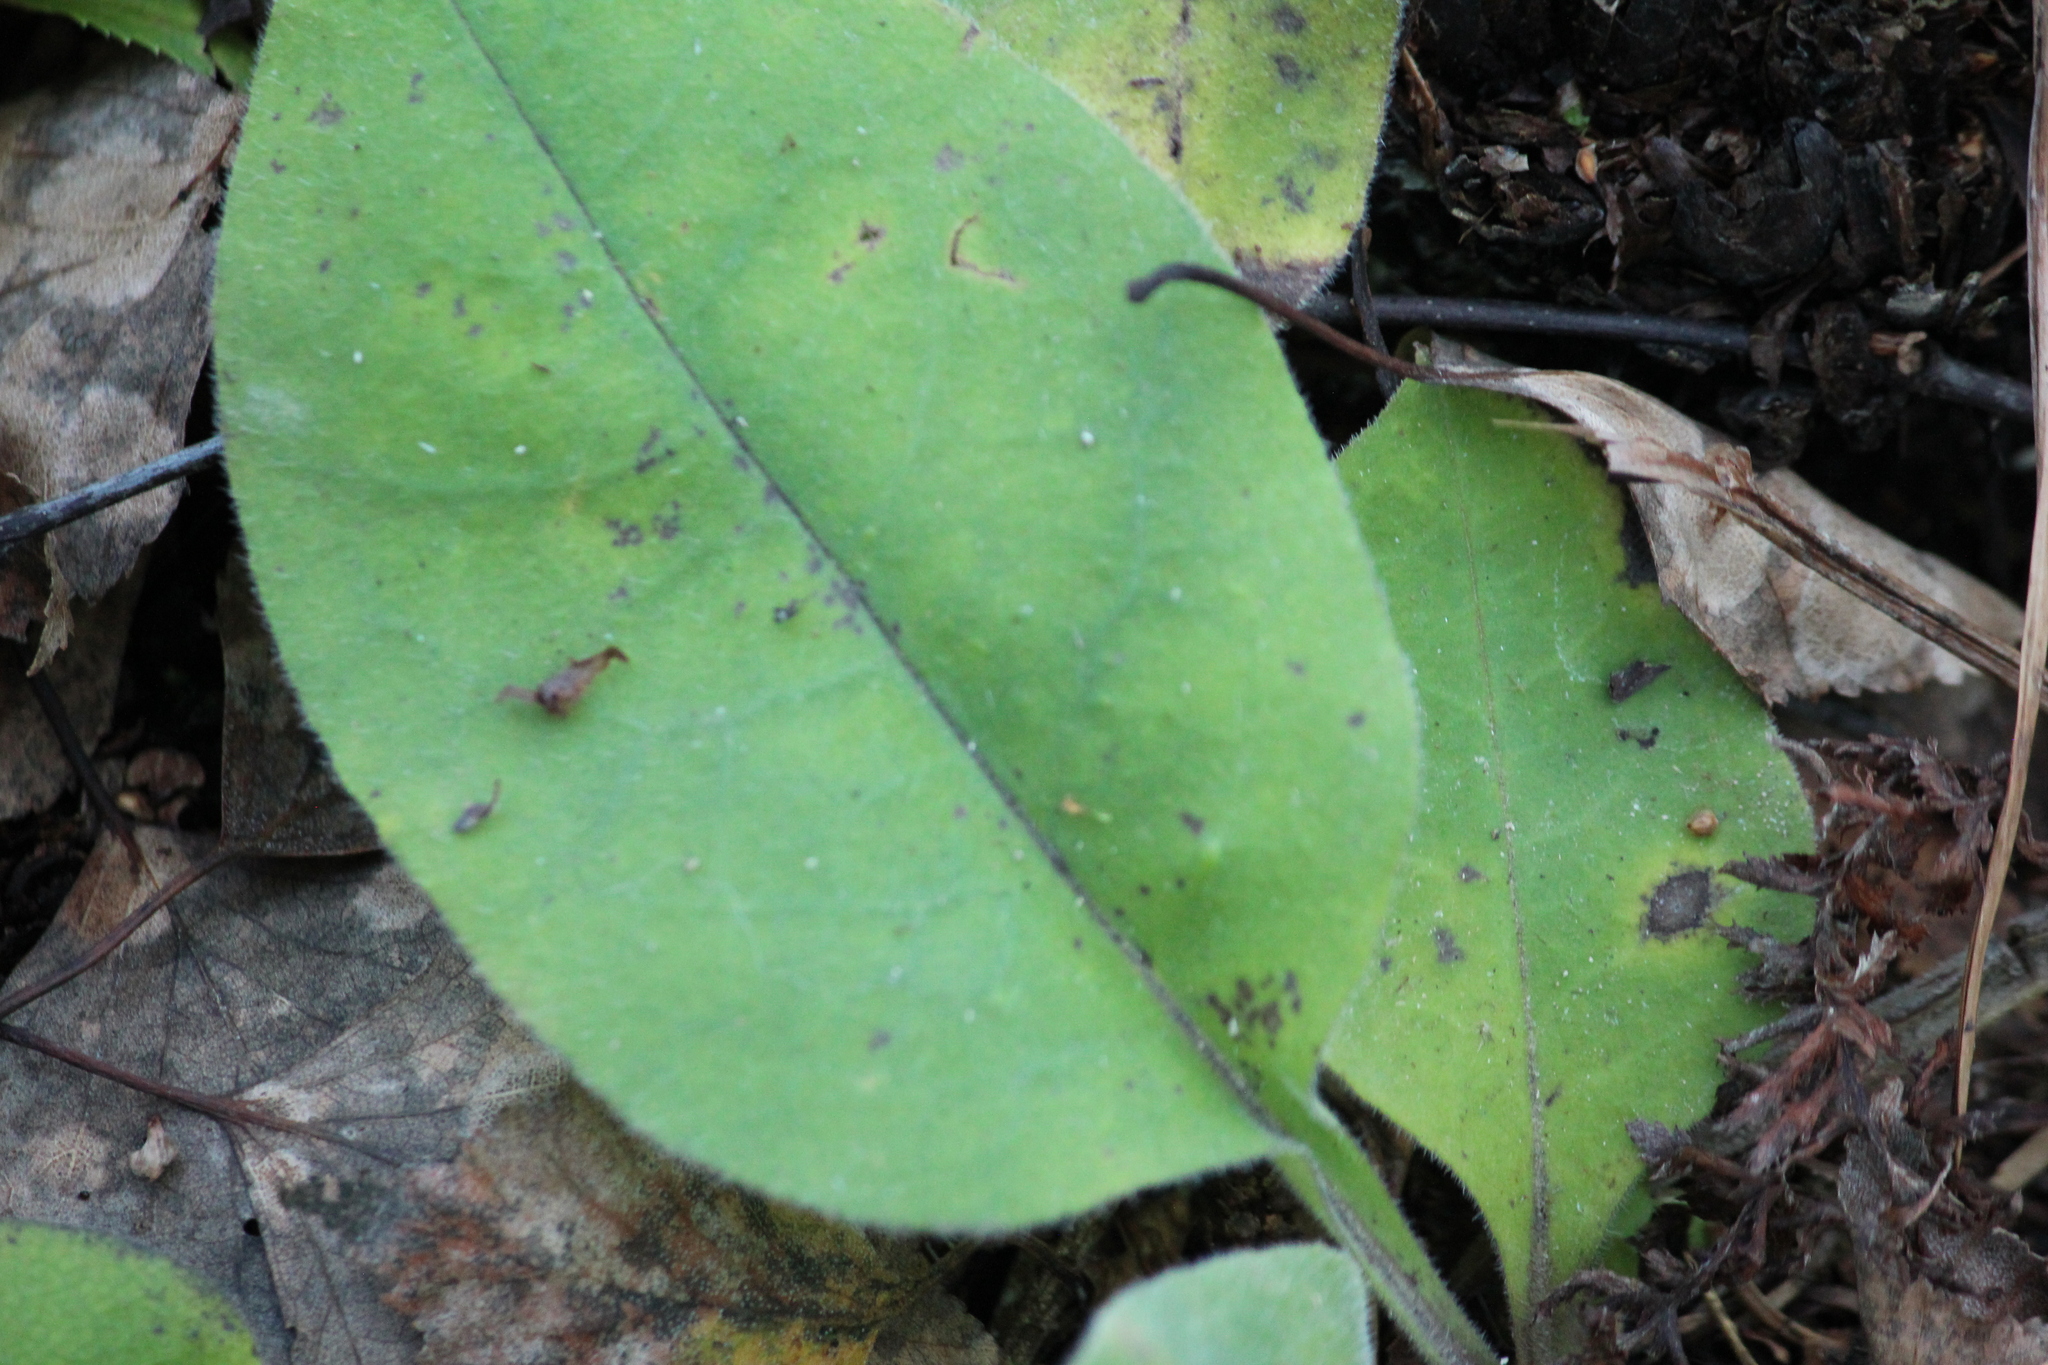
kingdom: Plantae
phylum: Tracheophyta
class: Magnoliopsida
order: Boraginales
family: Boraginaceae
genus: Pulmonaria
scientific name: Pulmonaria mollis
